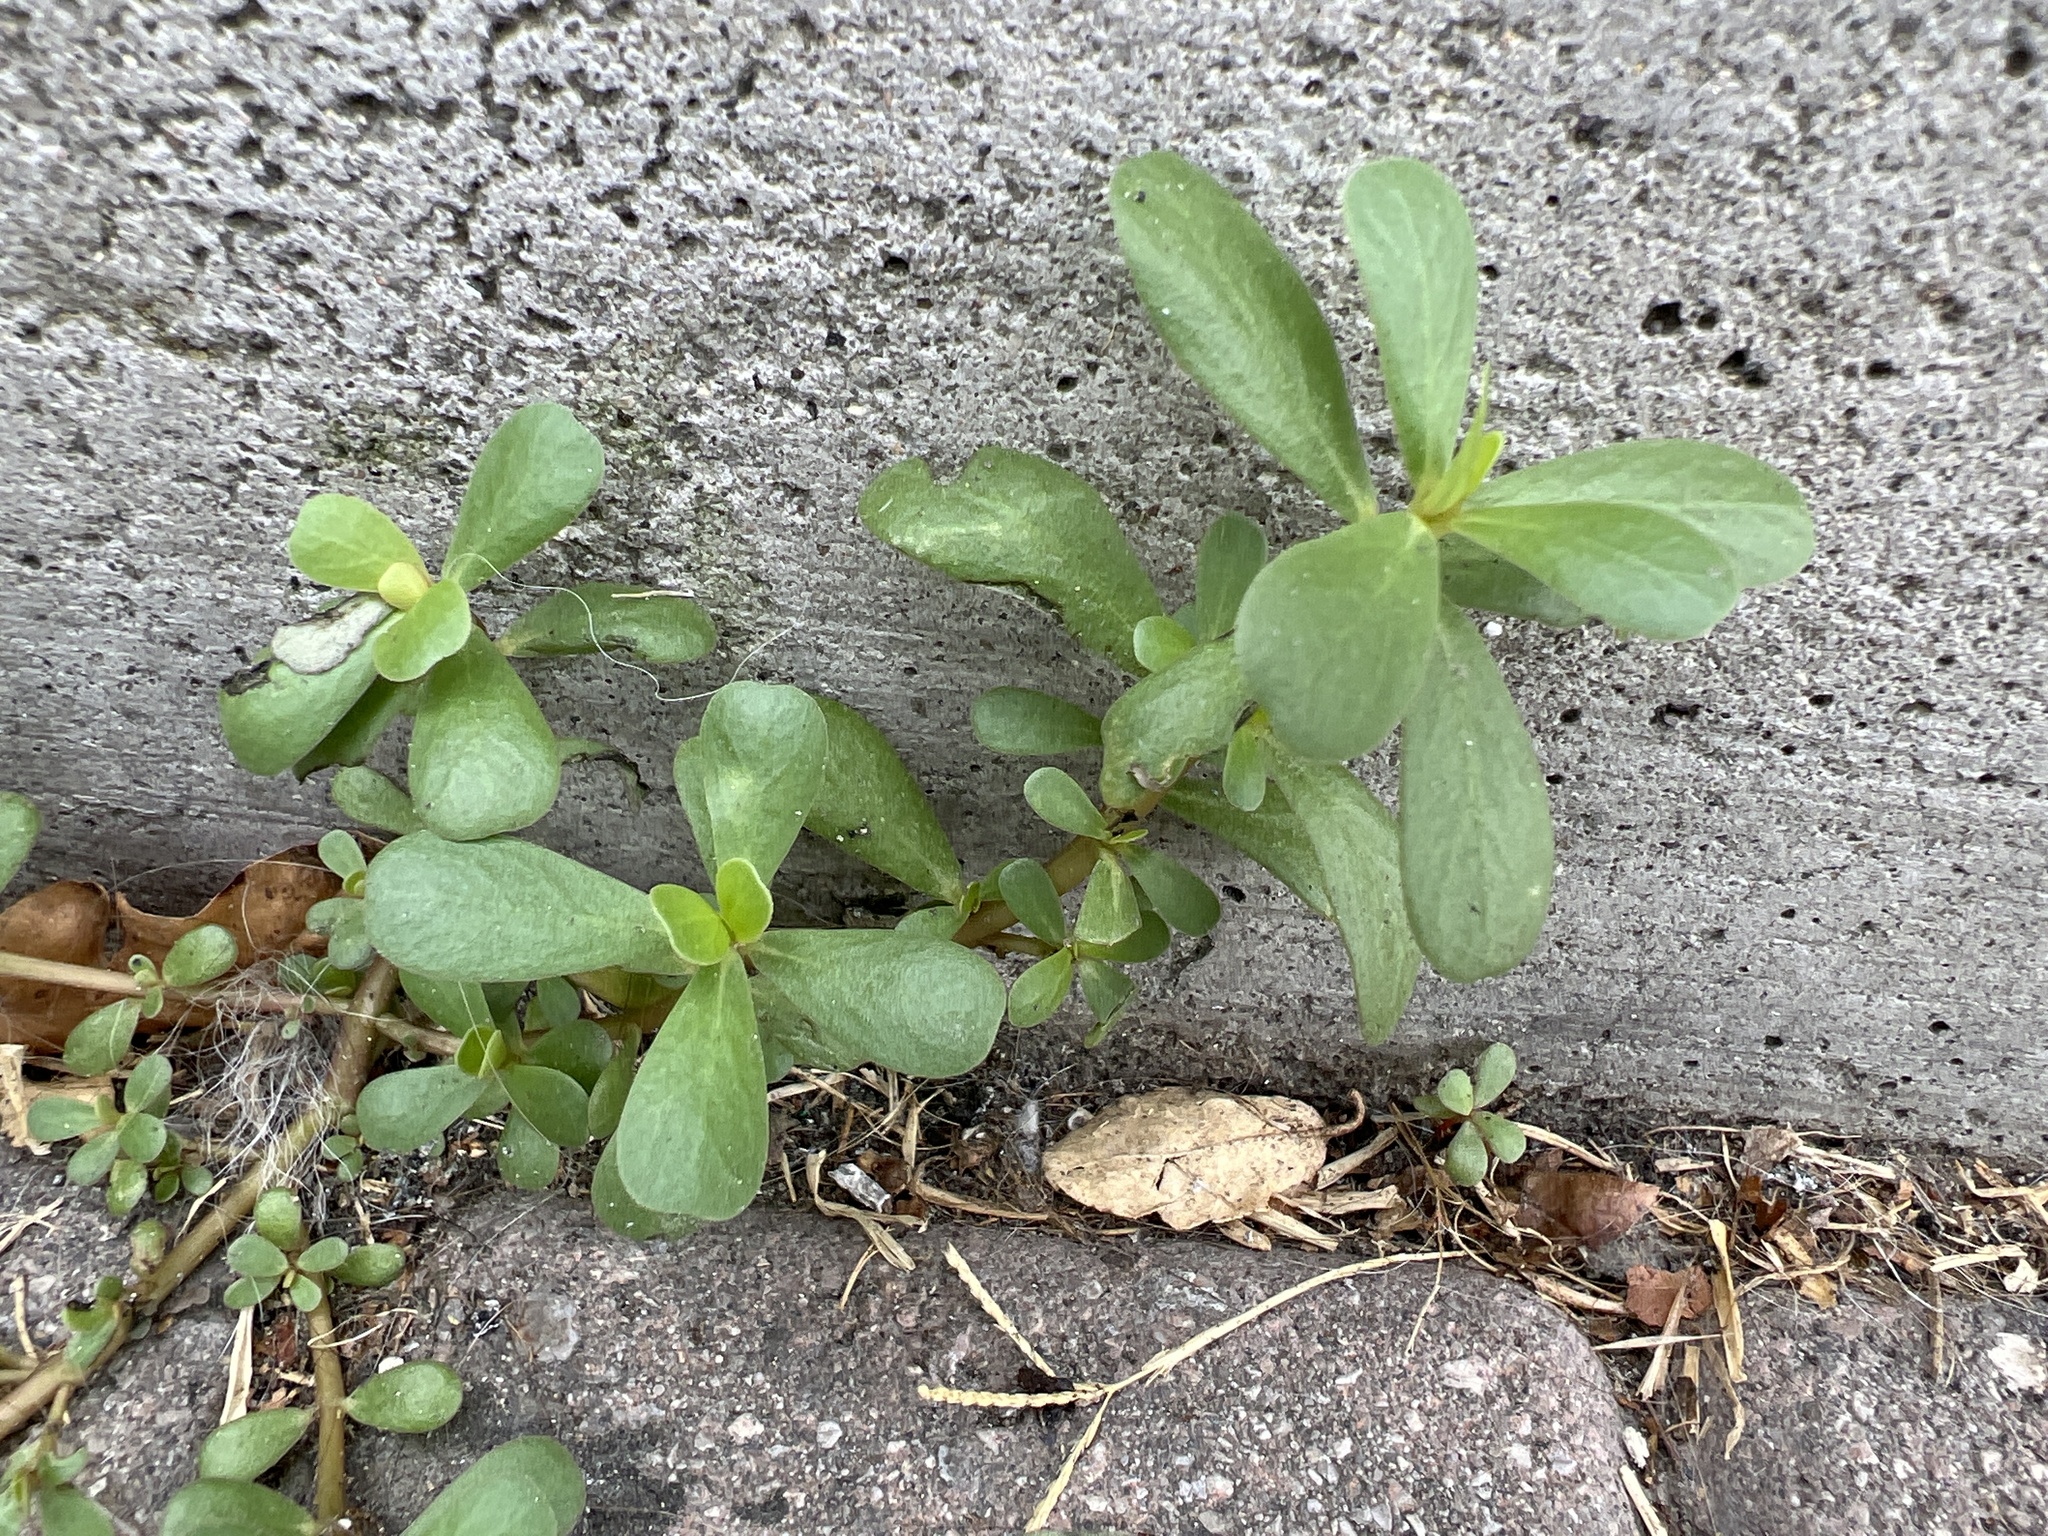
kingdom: Plantae
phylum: Tracheophyta
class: Magnoliopsida
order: Caryophyllales
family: Portulacaceae
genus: Portulaca
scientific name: Portulaca oleracea
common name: Common purslane
